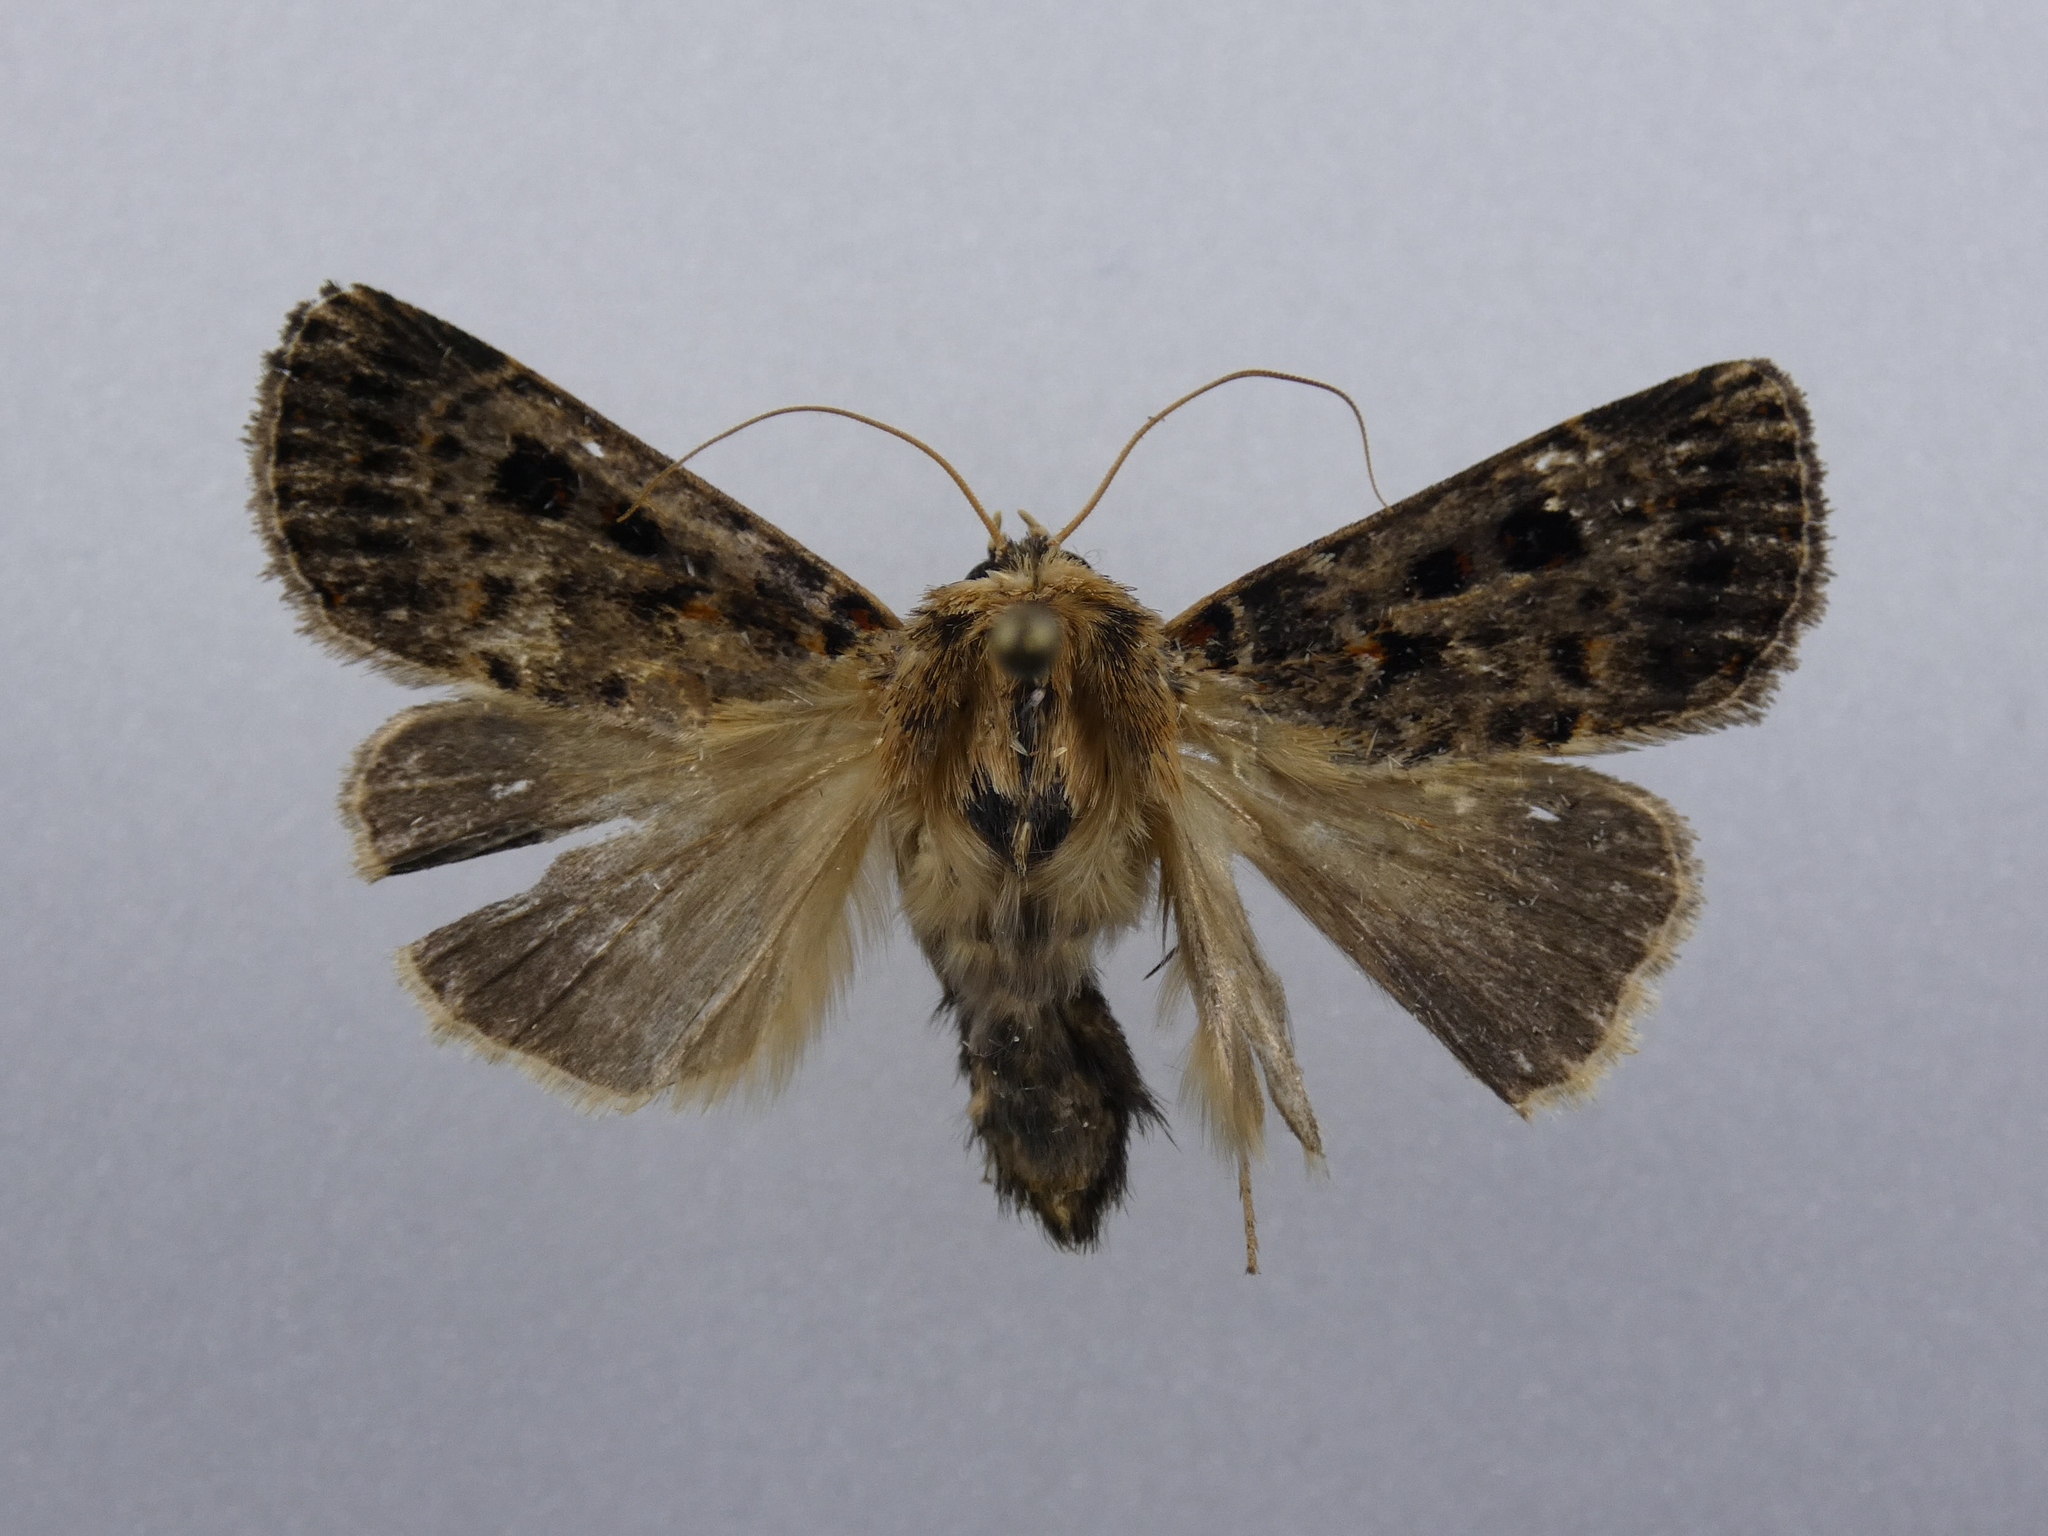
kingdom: Animalia
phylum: Arthropoda
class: Insecta
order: Lepidoptera
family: Noctuidae
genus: Proteuxoa
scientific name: Proteuxoa sanguinipuncta
